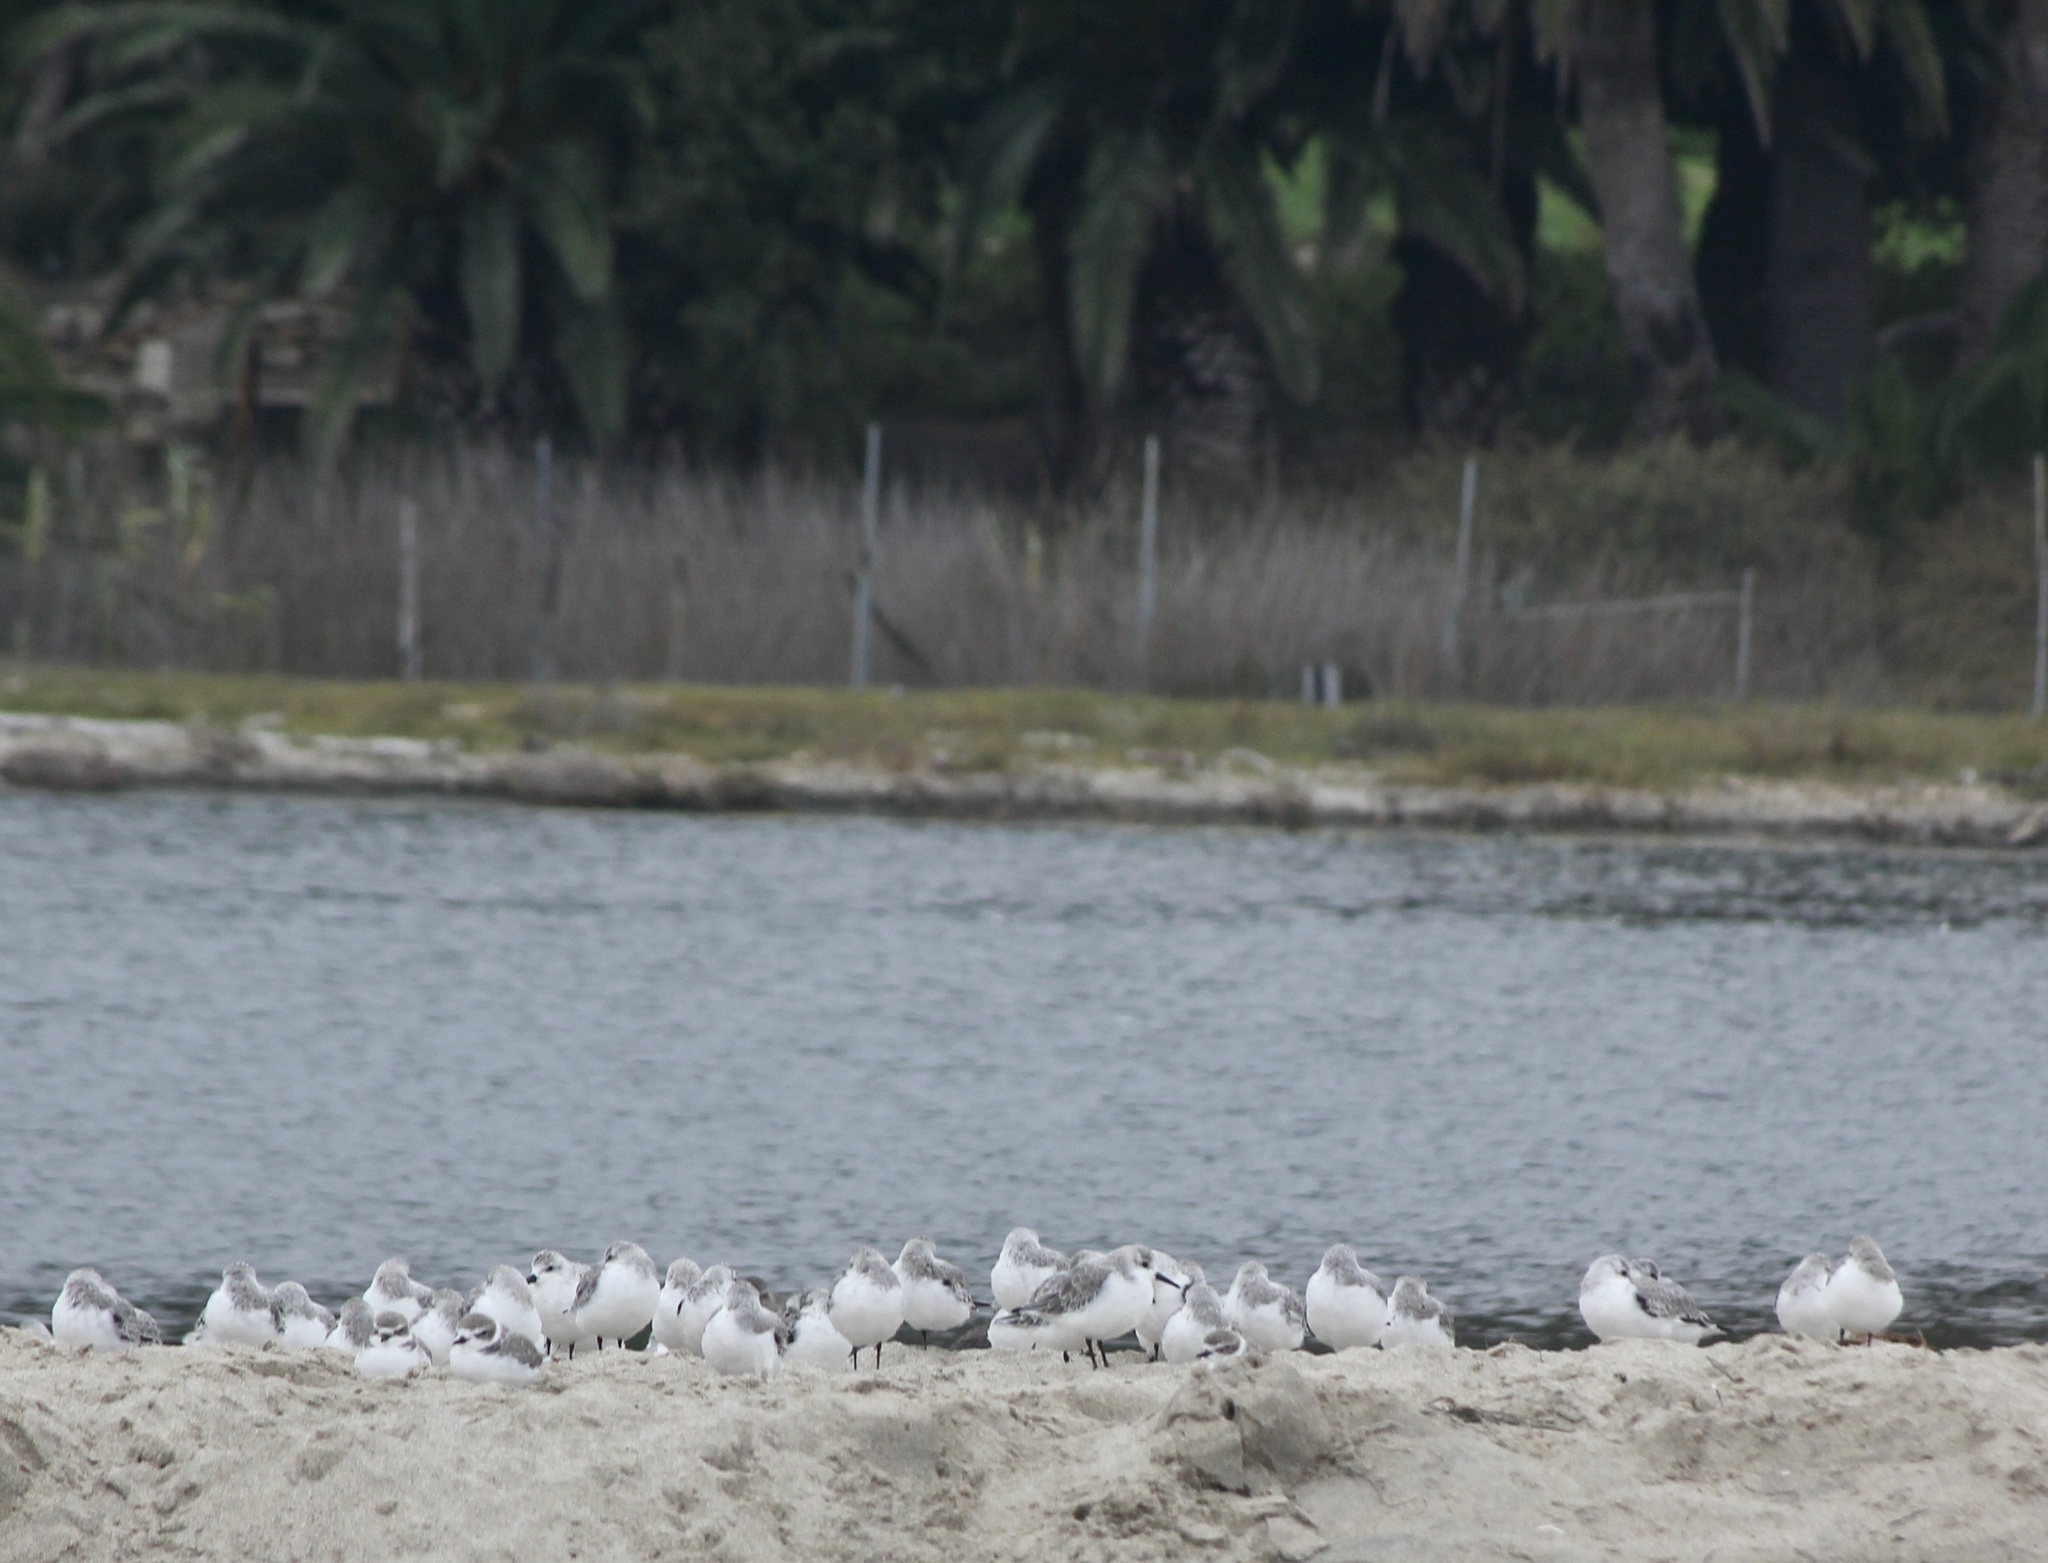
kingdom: Animalia
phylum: Chordata
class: Aves
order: Charadriiformes
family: Scolopacidae
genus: Calidris
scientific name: Calidris alba
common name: Sanderling
